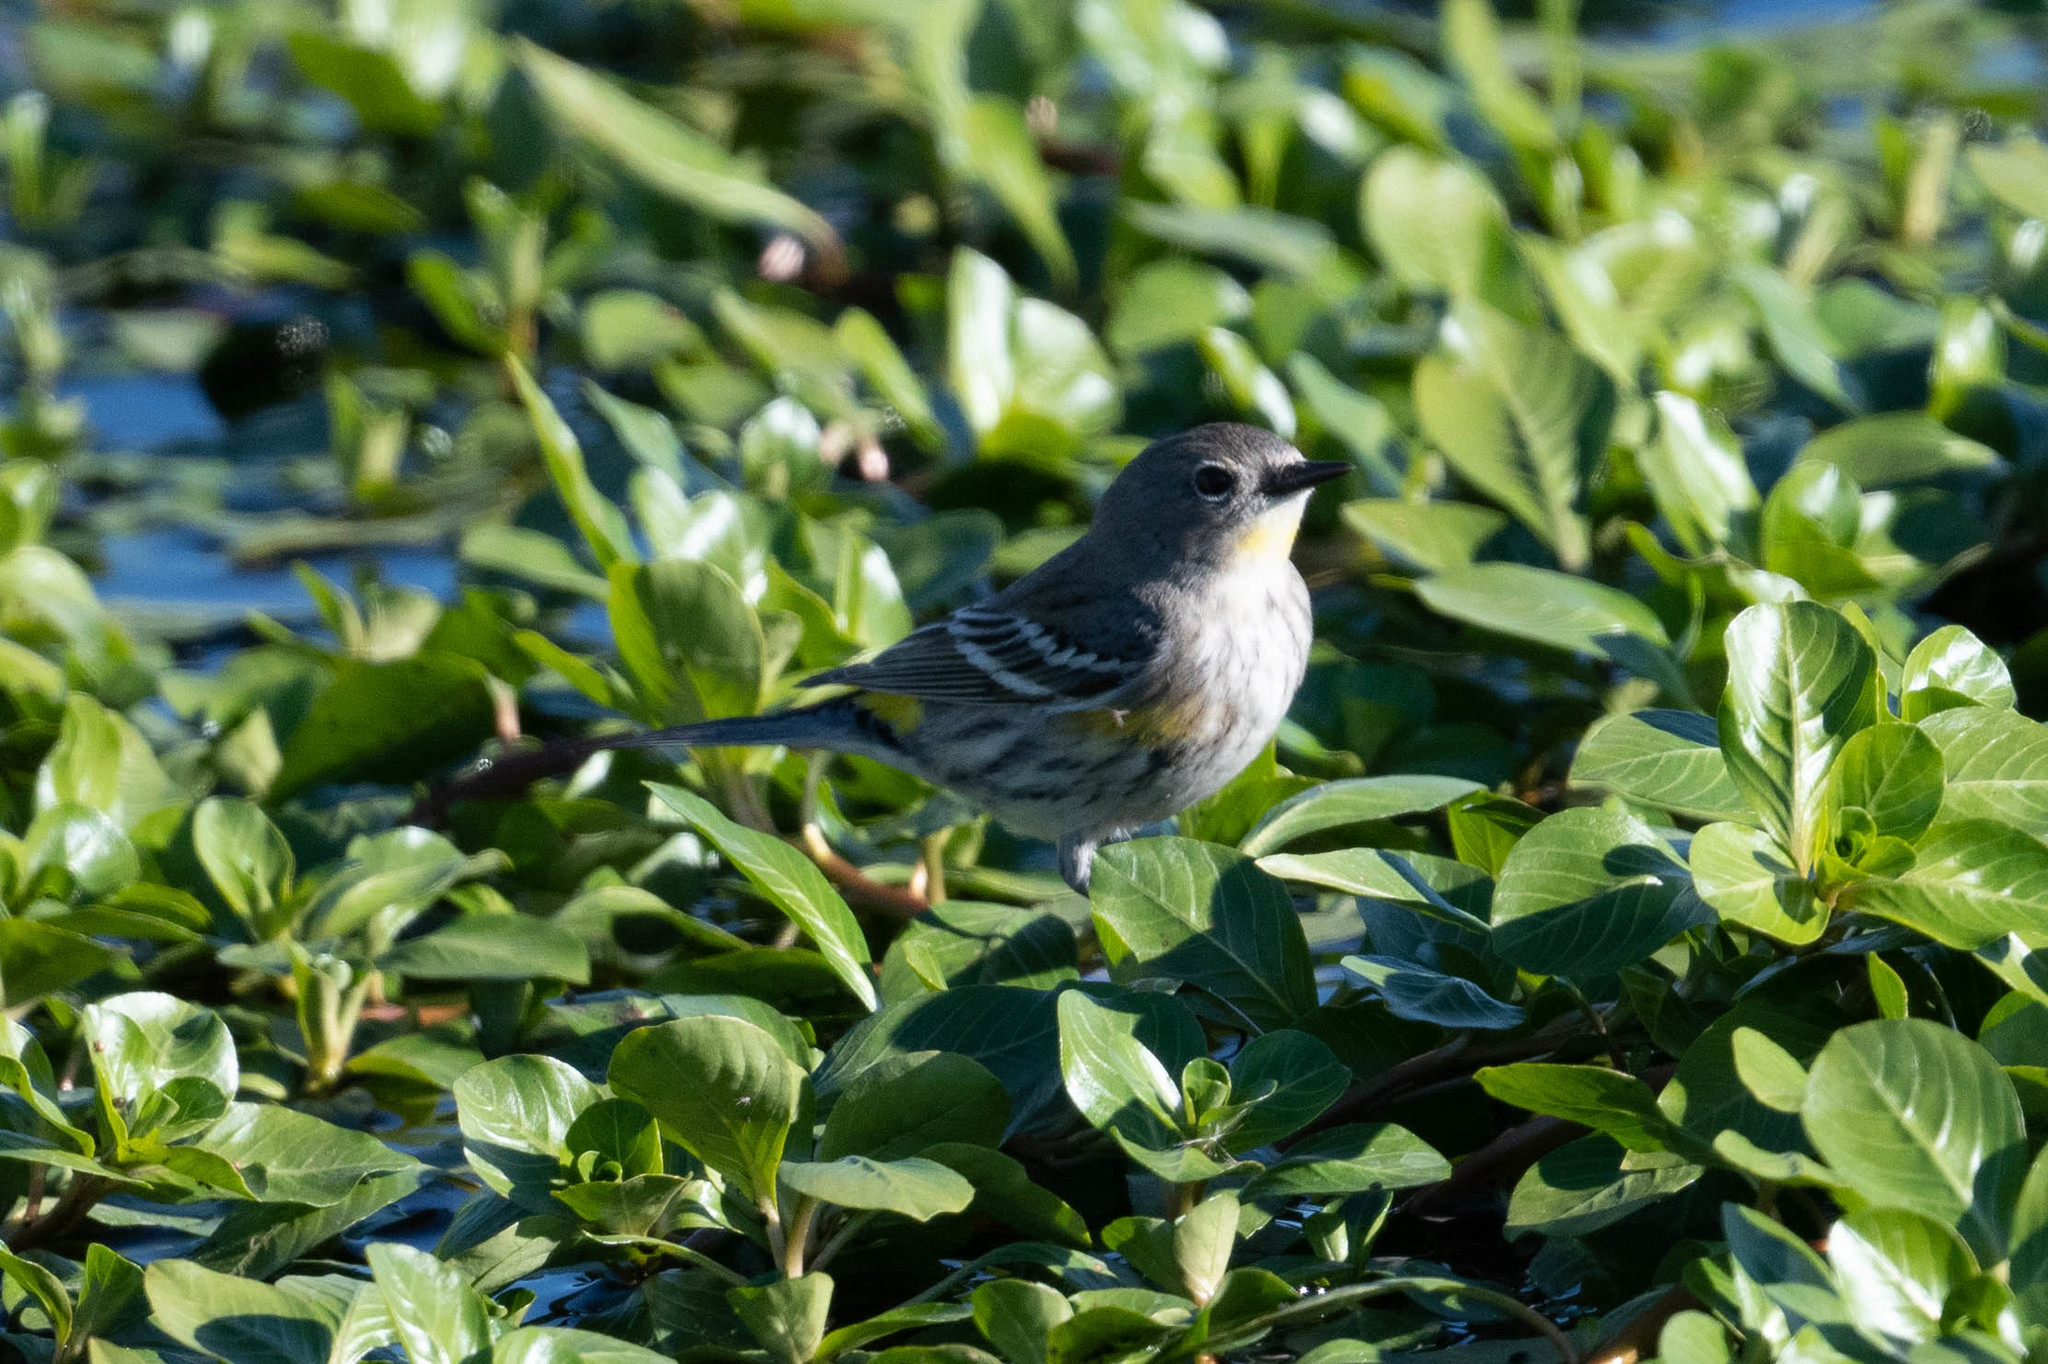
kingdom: Animalia
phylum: Chordata
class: Aves
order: Passeriformes
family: Parulidae
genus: Setophaga
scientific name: Setophaga coronata
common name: Myrtle warbler
